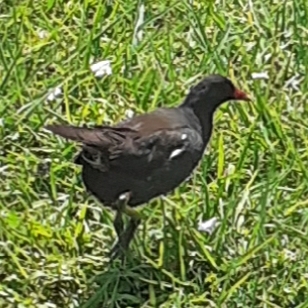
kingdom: Animalia
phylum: Chordata
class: Aves
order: Gruiformes
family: Rallidae
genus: Gallinula
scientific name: Gallinula chloropus
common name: Common moorhen
